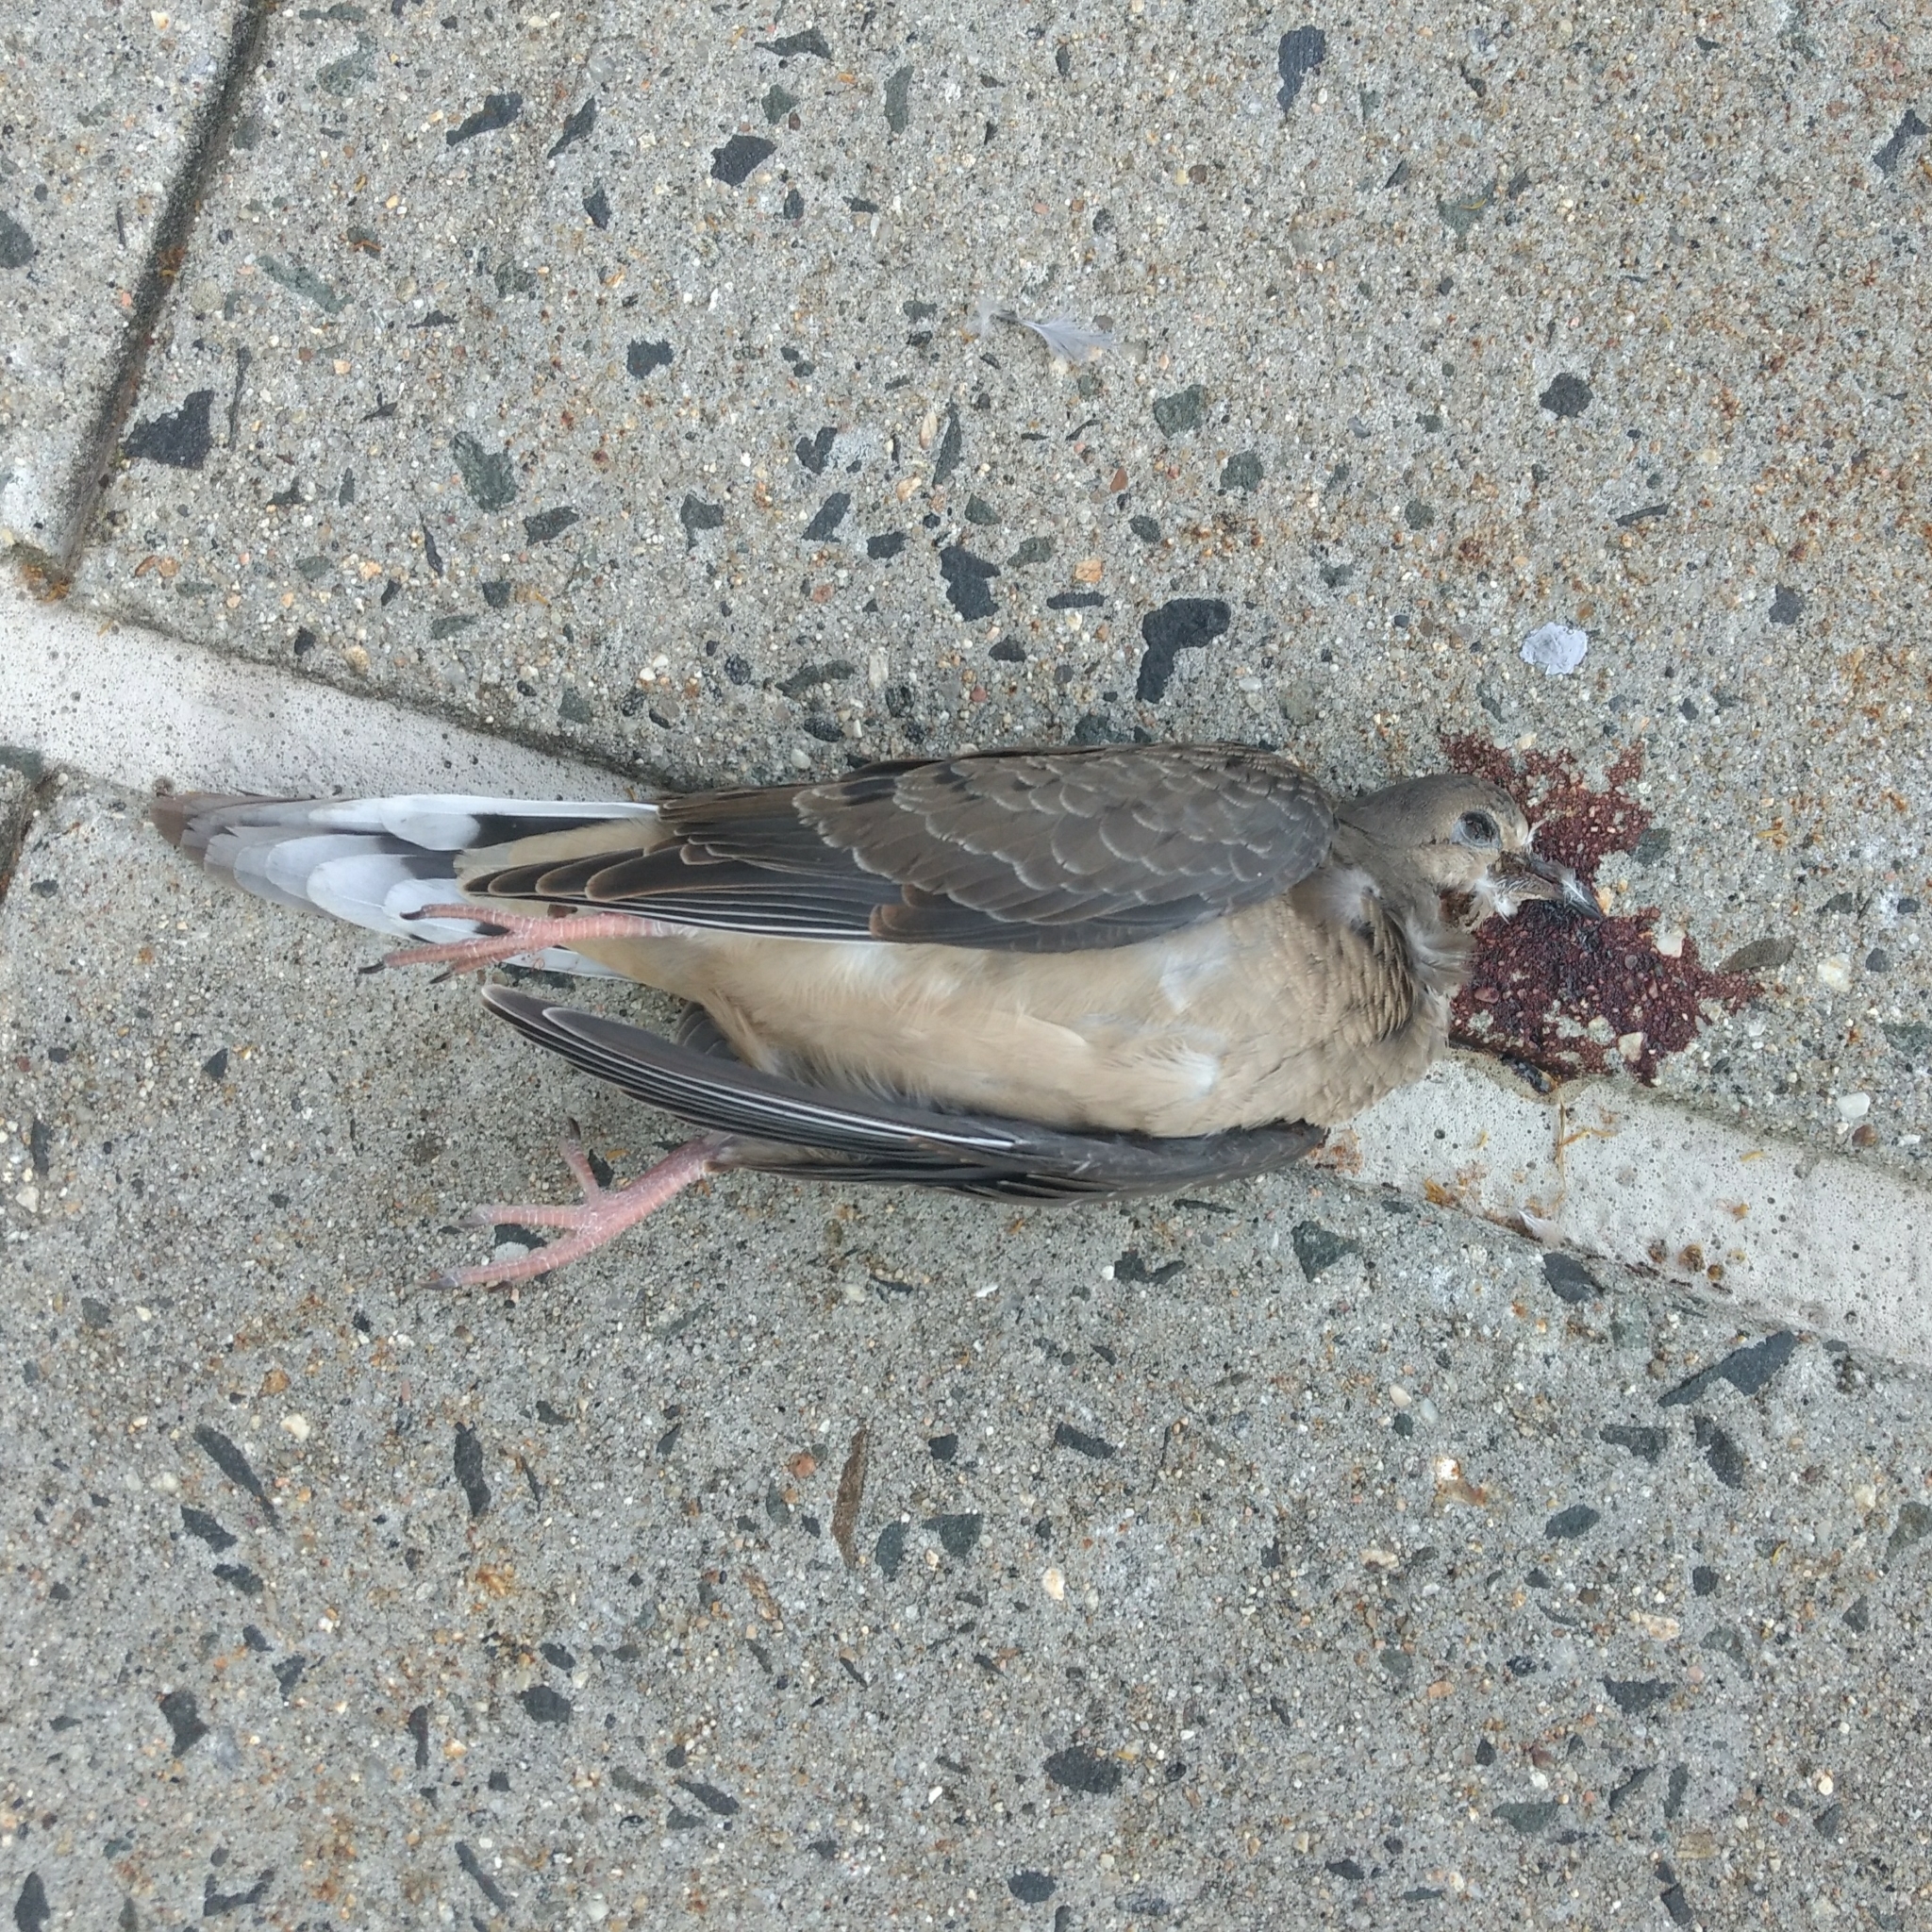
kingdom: Animalia
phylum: Chordata
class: Aves
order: Columbiformes
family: Columbidae
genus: Zenaida
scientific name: Zenaida macroura
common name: Mourning dove
